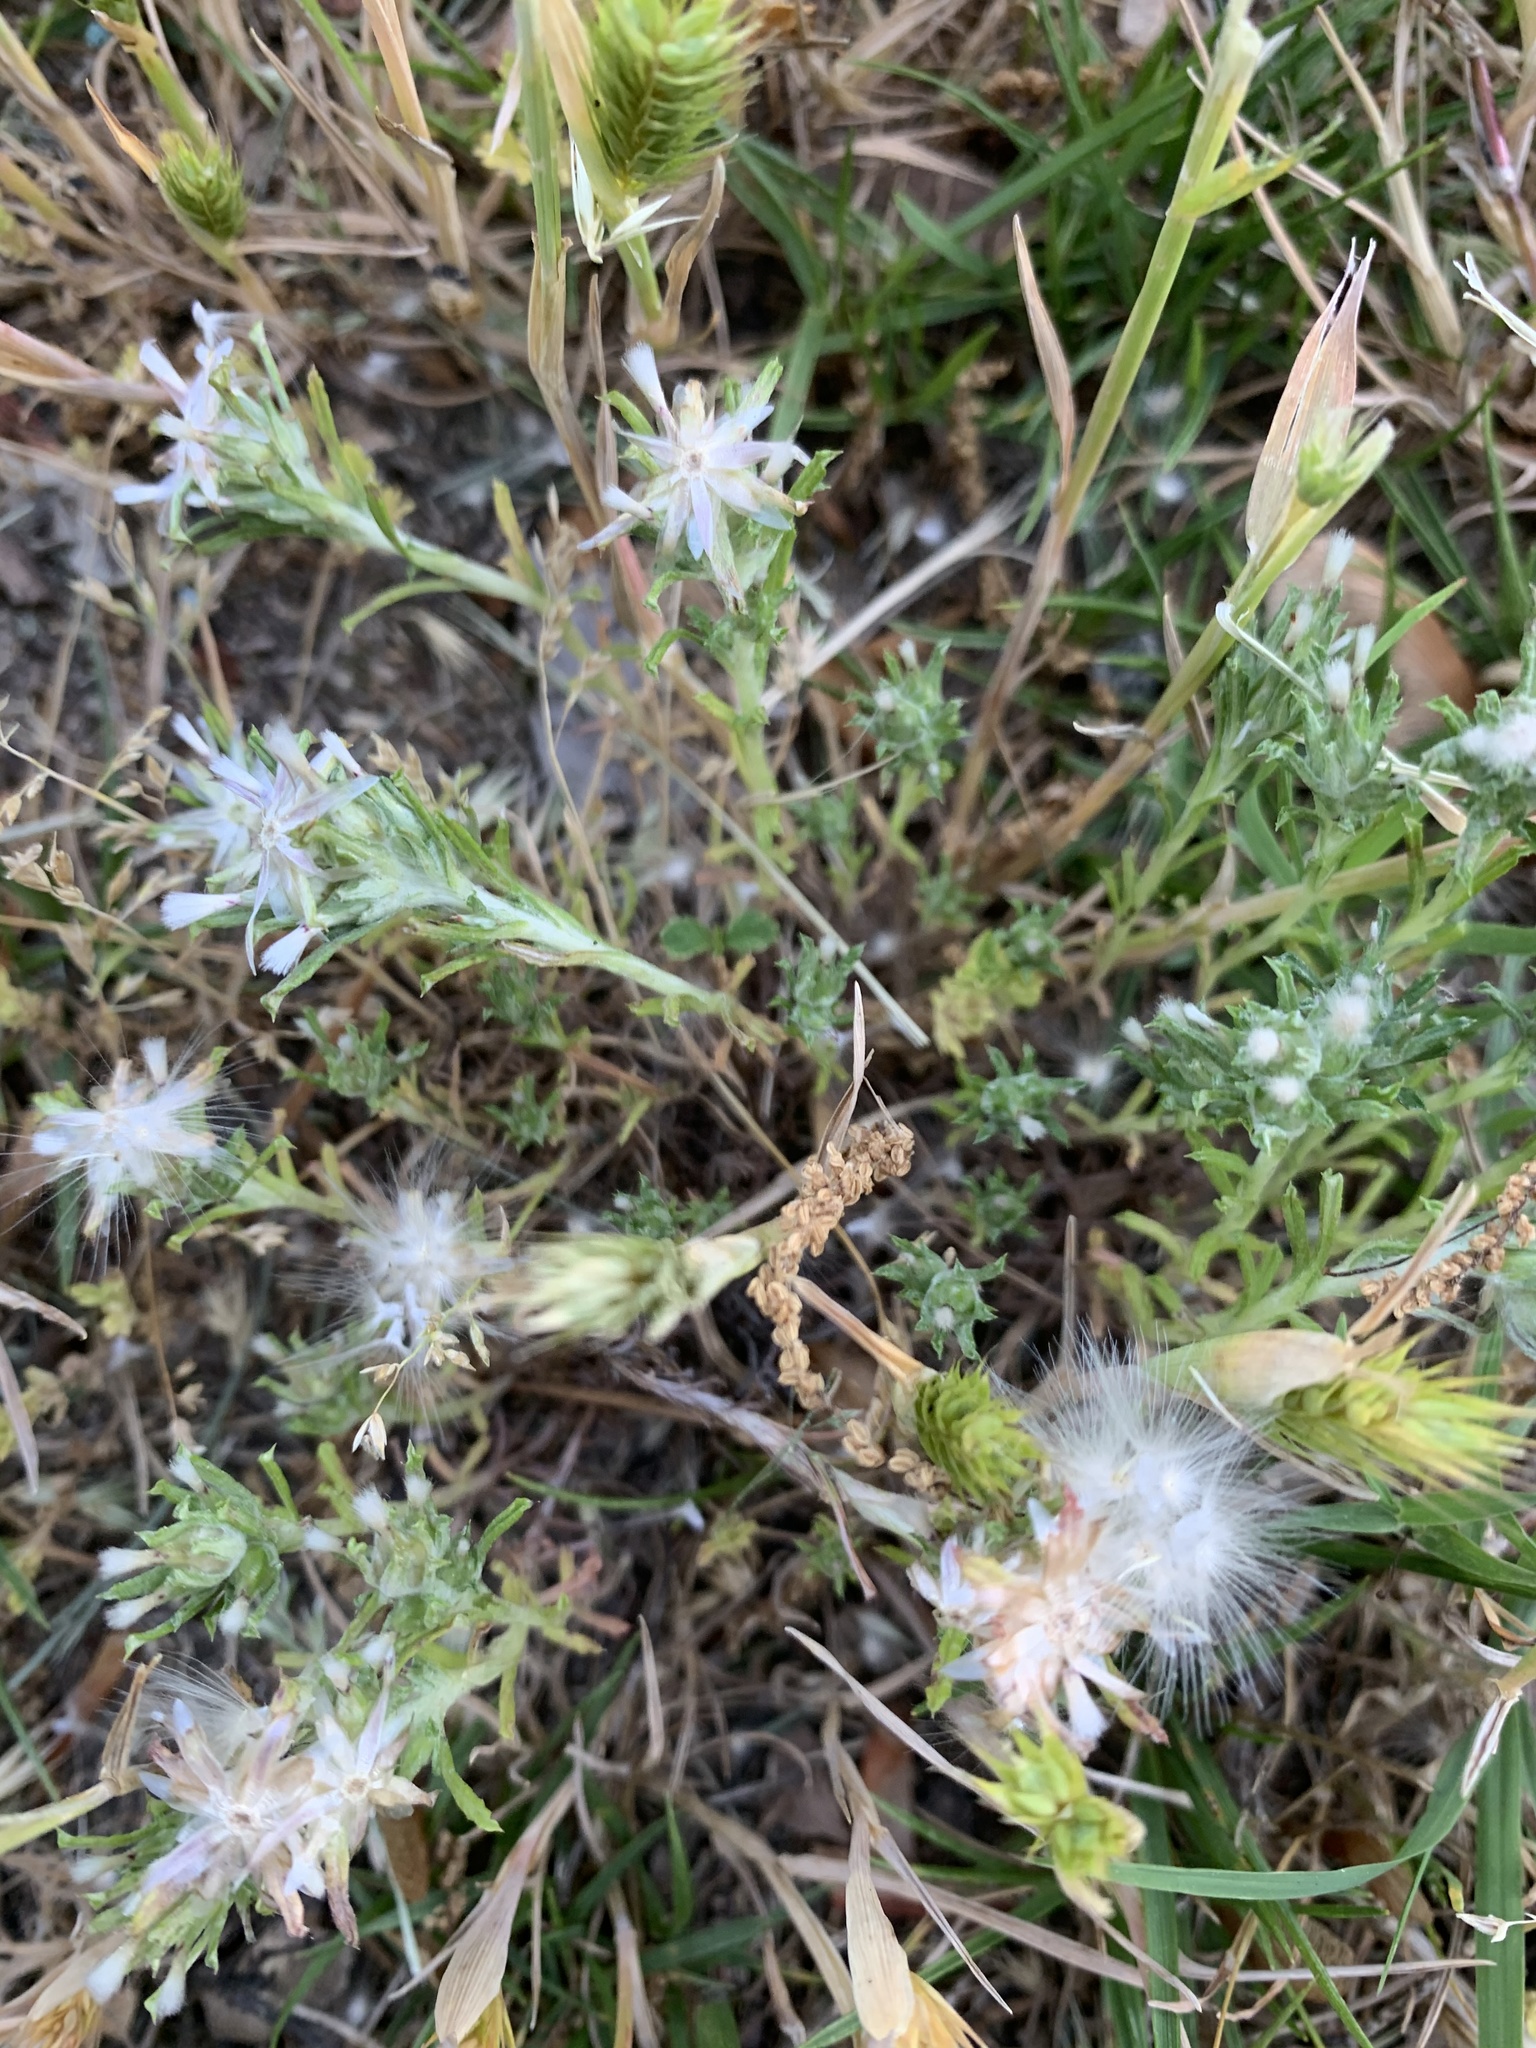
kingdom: Plantae
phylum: Tracheophyta
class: Magnoliopsida
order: Asterales
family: Asteraceae
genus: Facelis
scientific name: Facelis retusa
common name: Annual trampweed
